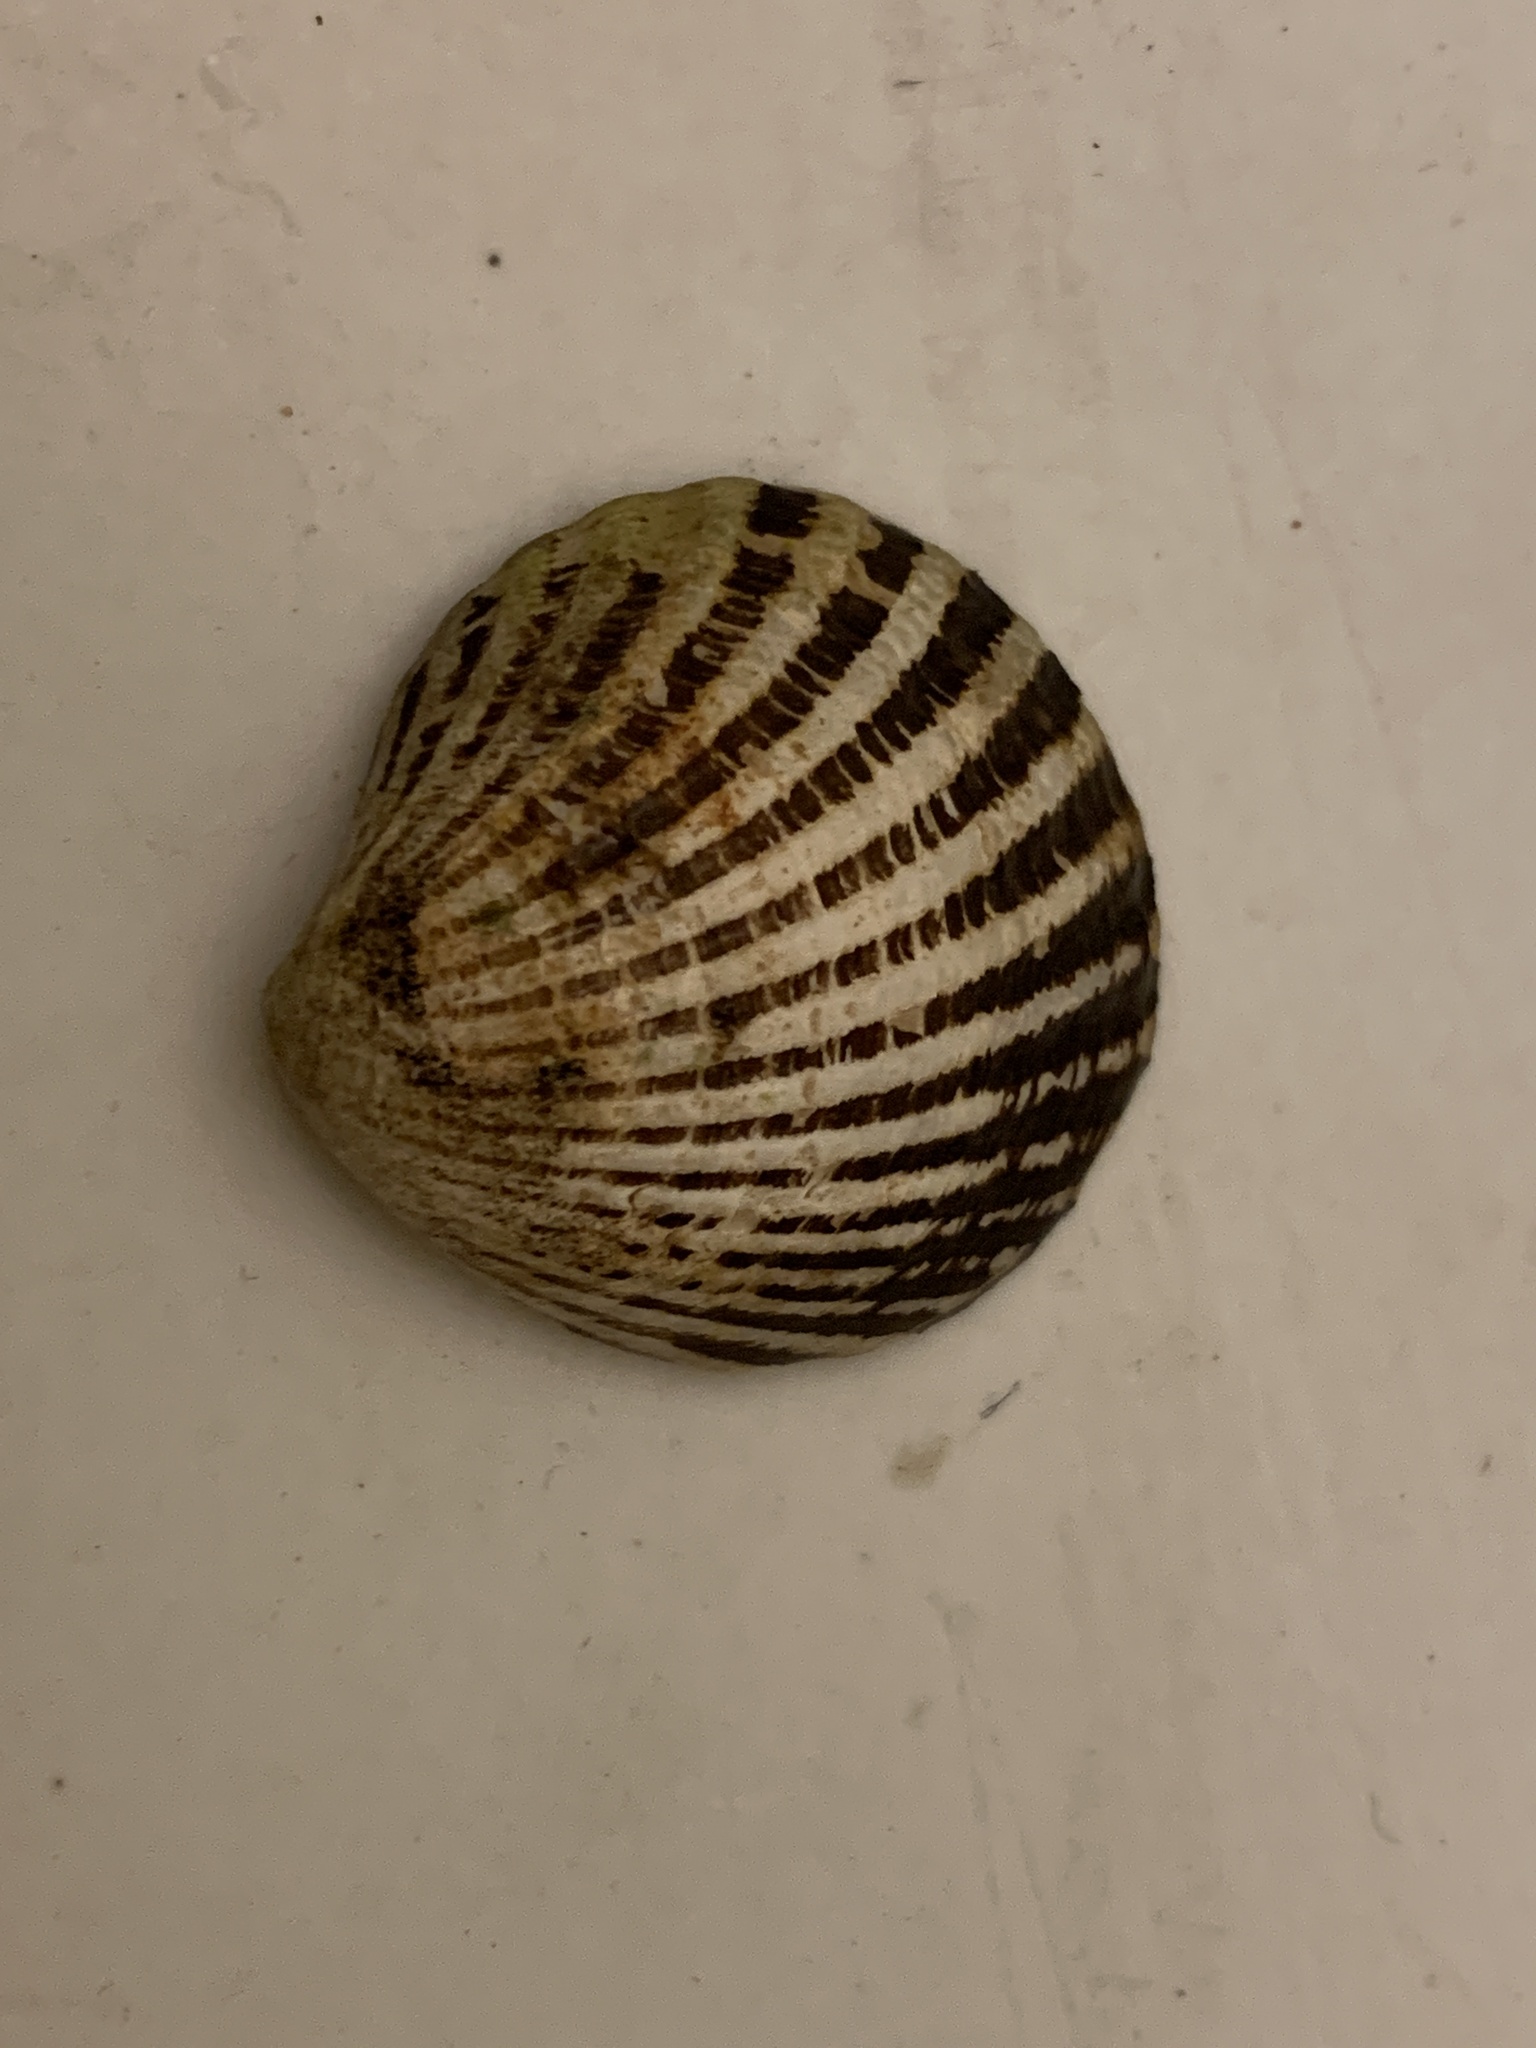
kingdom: Animalia
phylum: Mollusca
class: Bivalvia
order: Carditida
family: Carditidae
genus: Cyclocardia
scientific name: Cyclocardia borealis
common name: Northern cyclocardia
